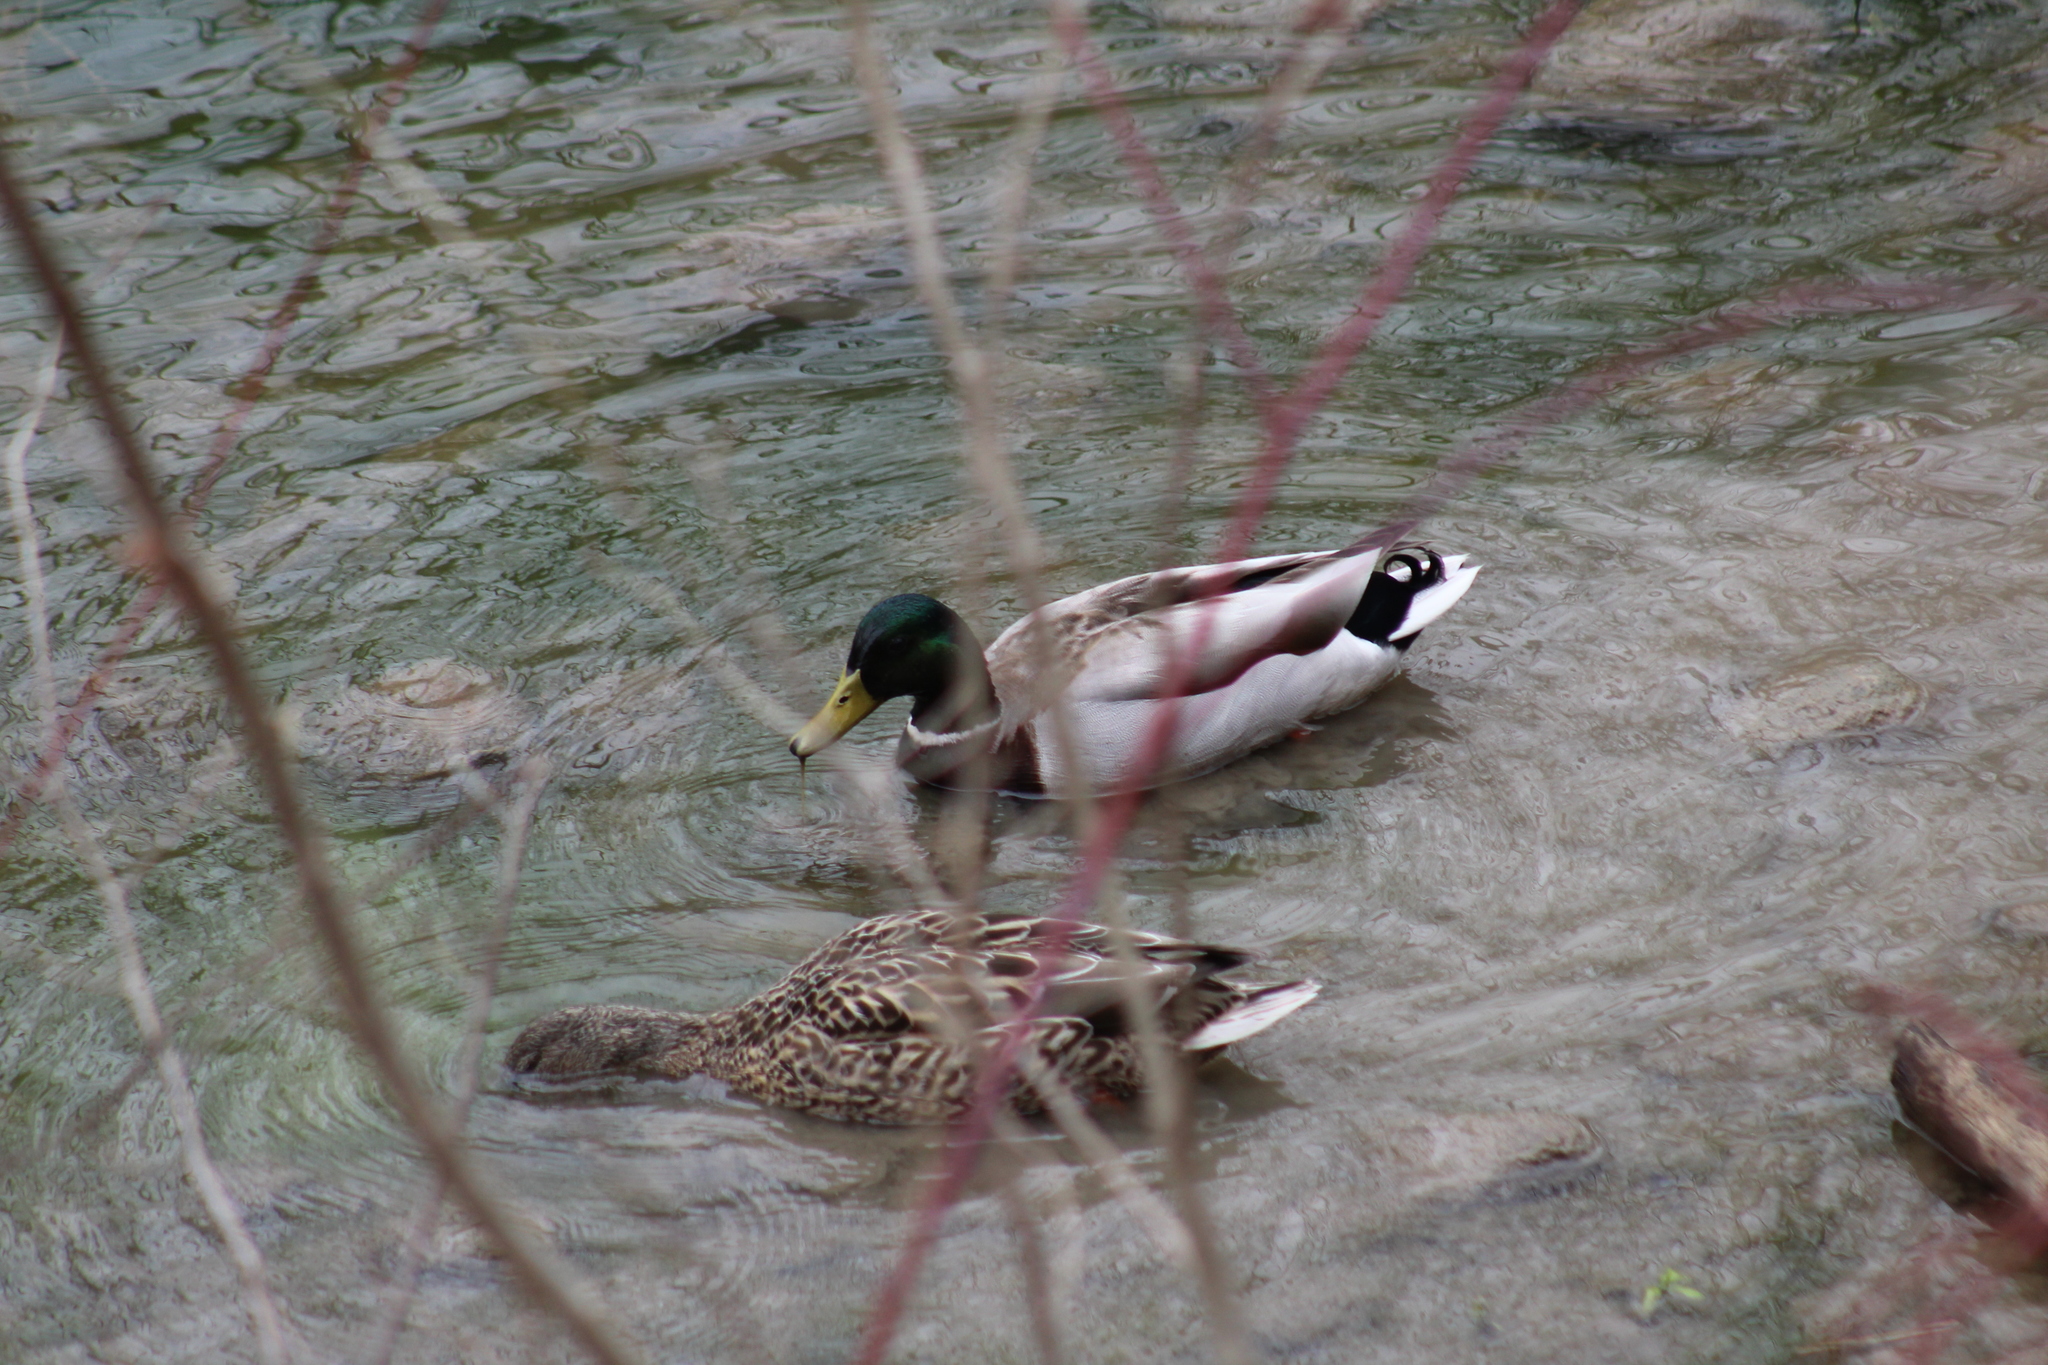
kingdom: Animalia
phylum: Chordata
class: Aves
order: Anseriformes
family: Anatidae
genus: Anas
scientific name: Anas platyrhynchos
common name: Mallard
